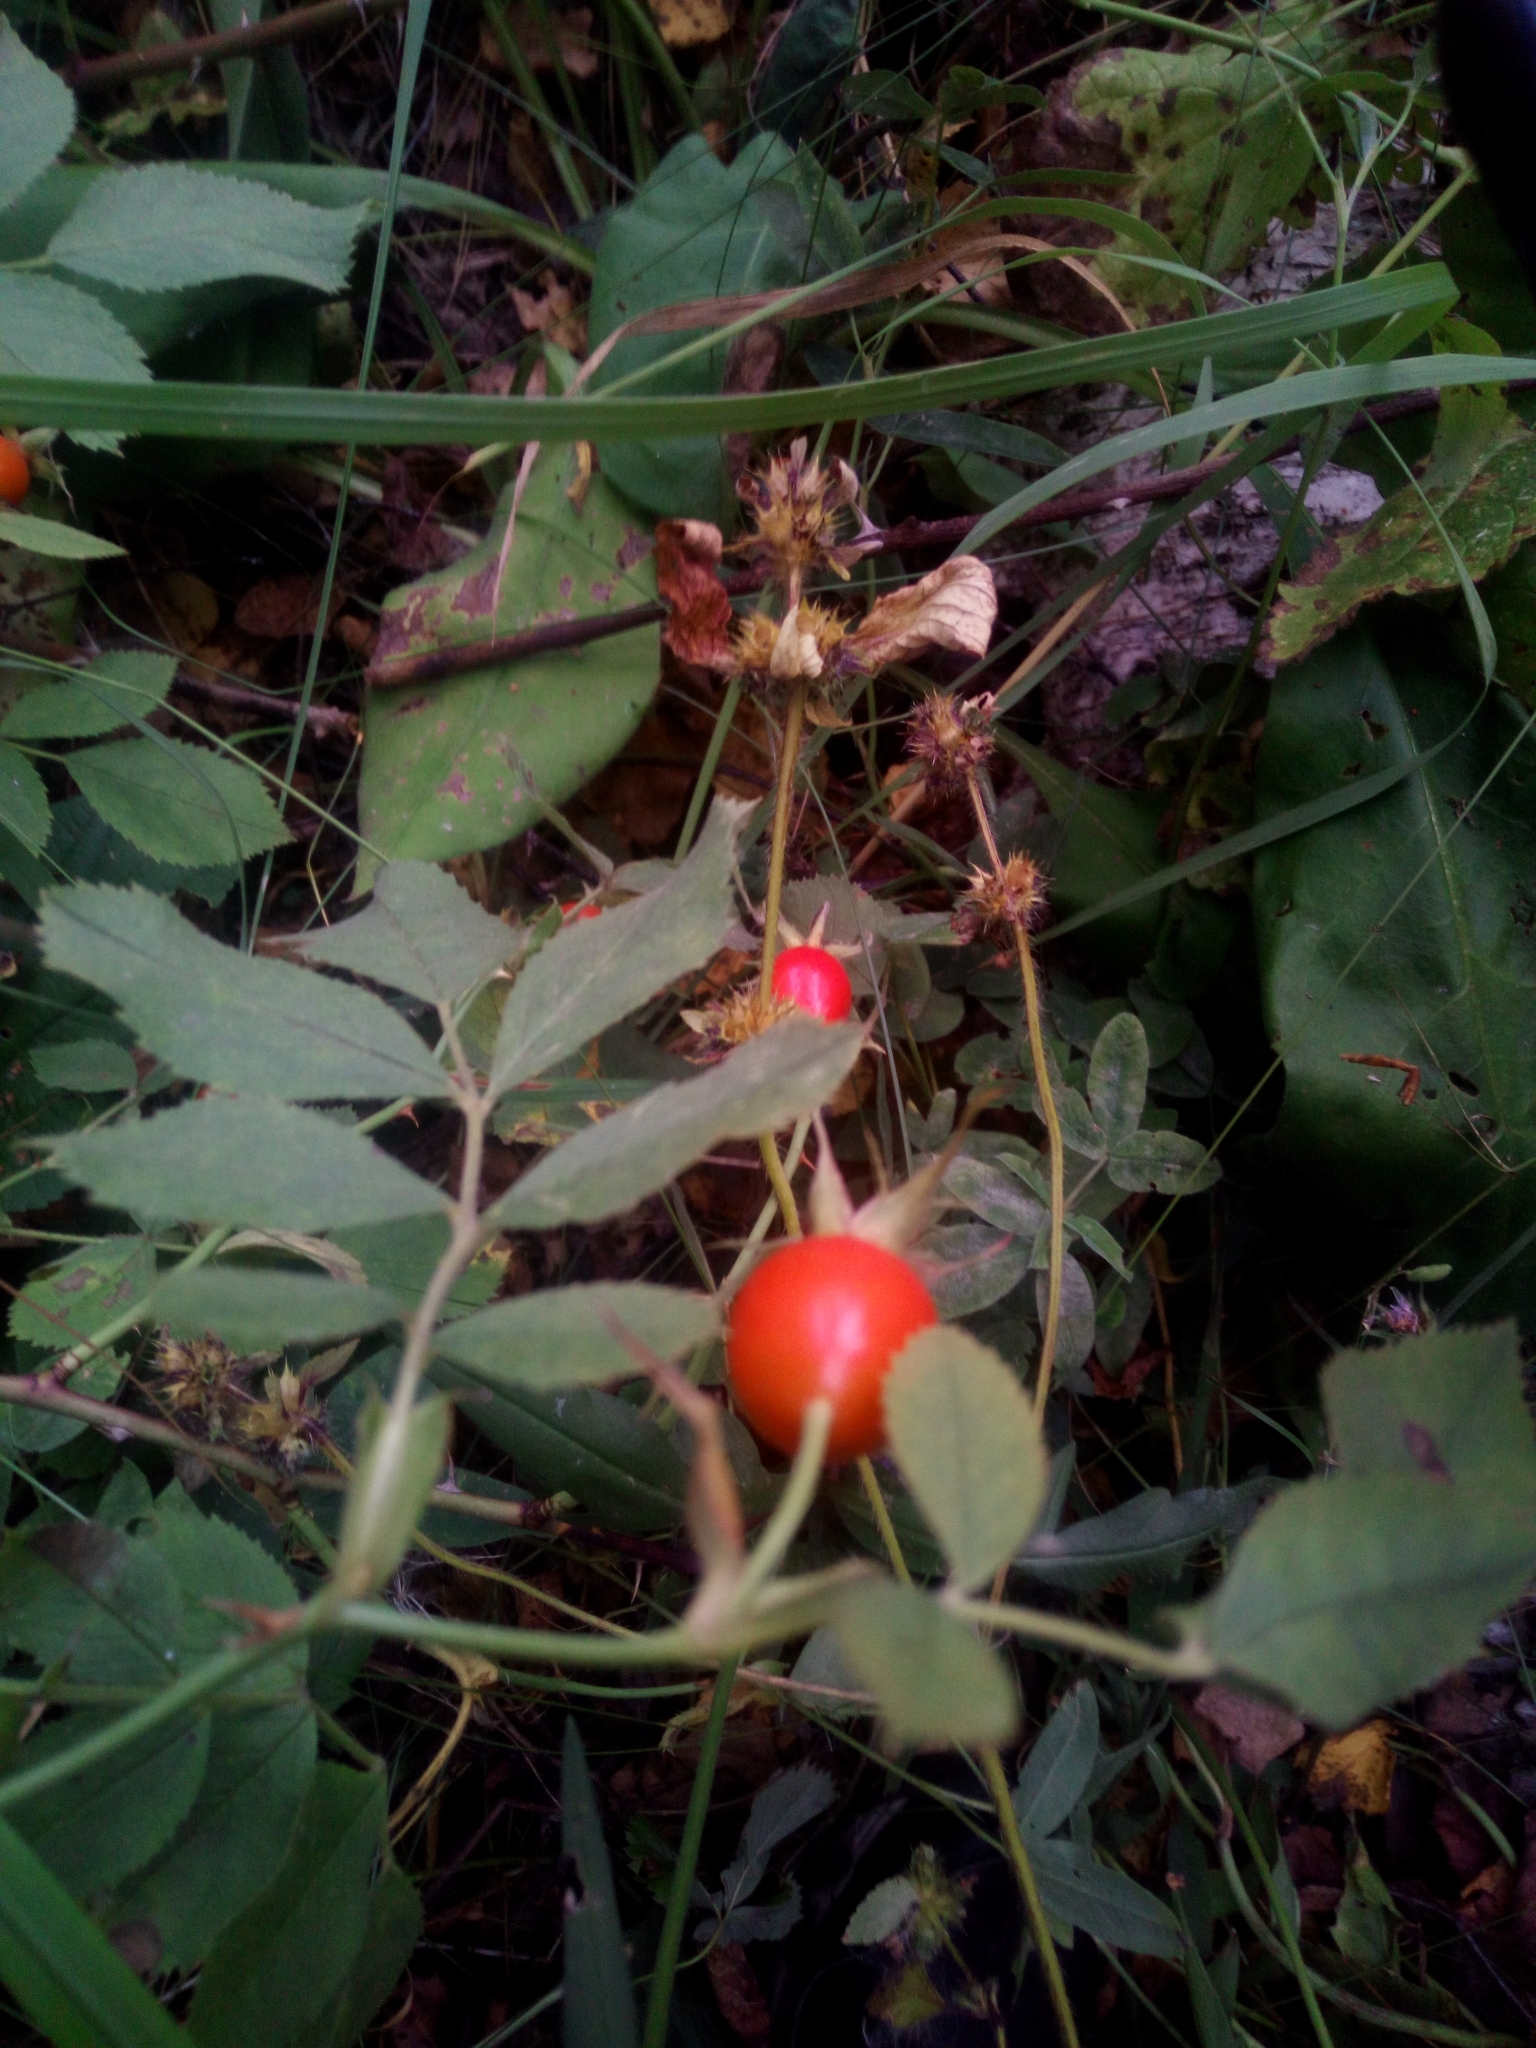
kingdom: Plantae
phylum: Tracheophyta
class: Magnoliopsida
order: Rosales
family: Rosaceae
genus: Rosa
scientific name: Rosa
